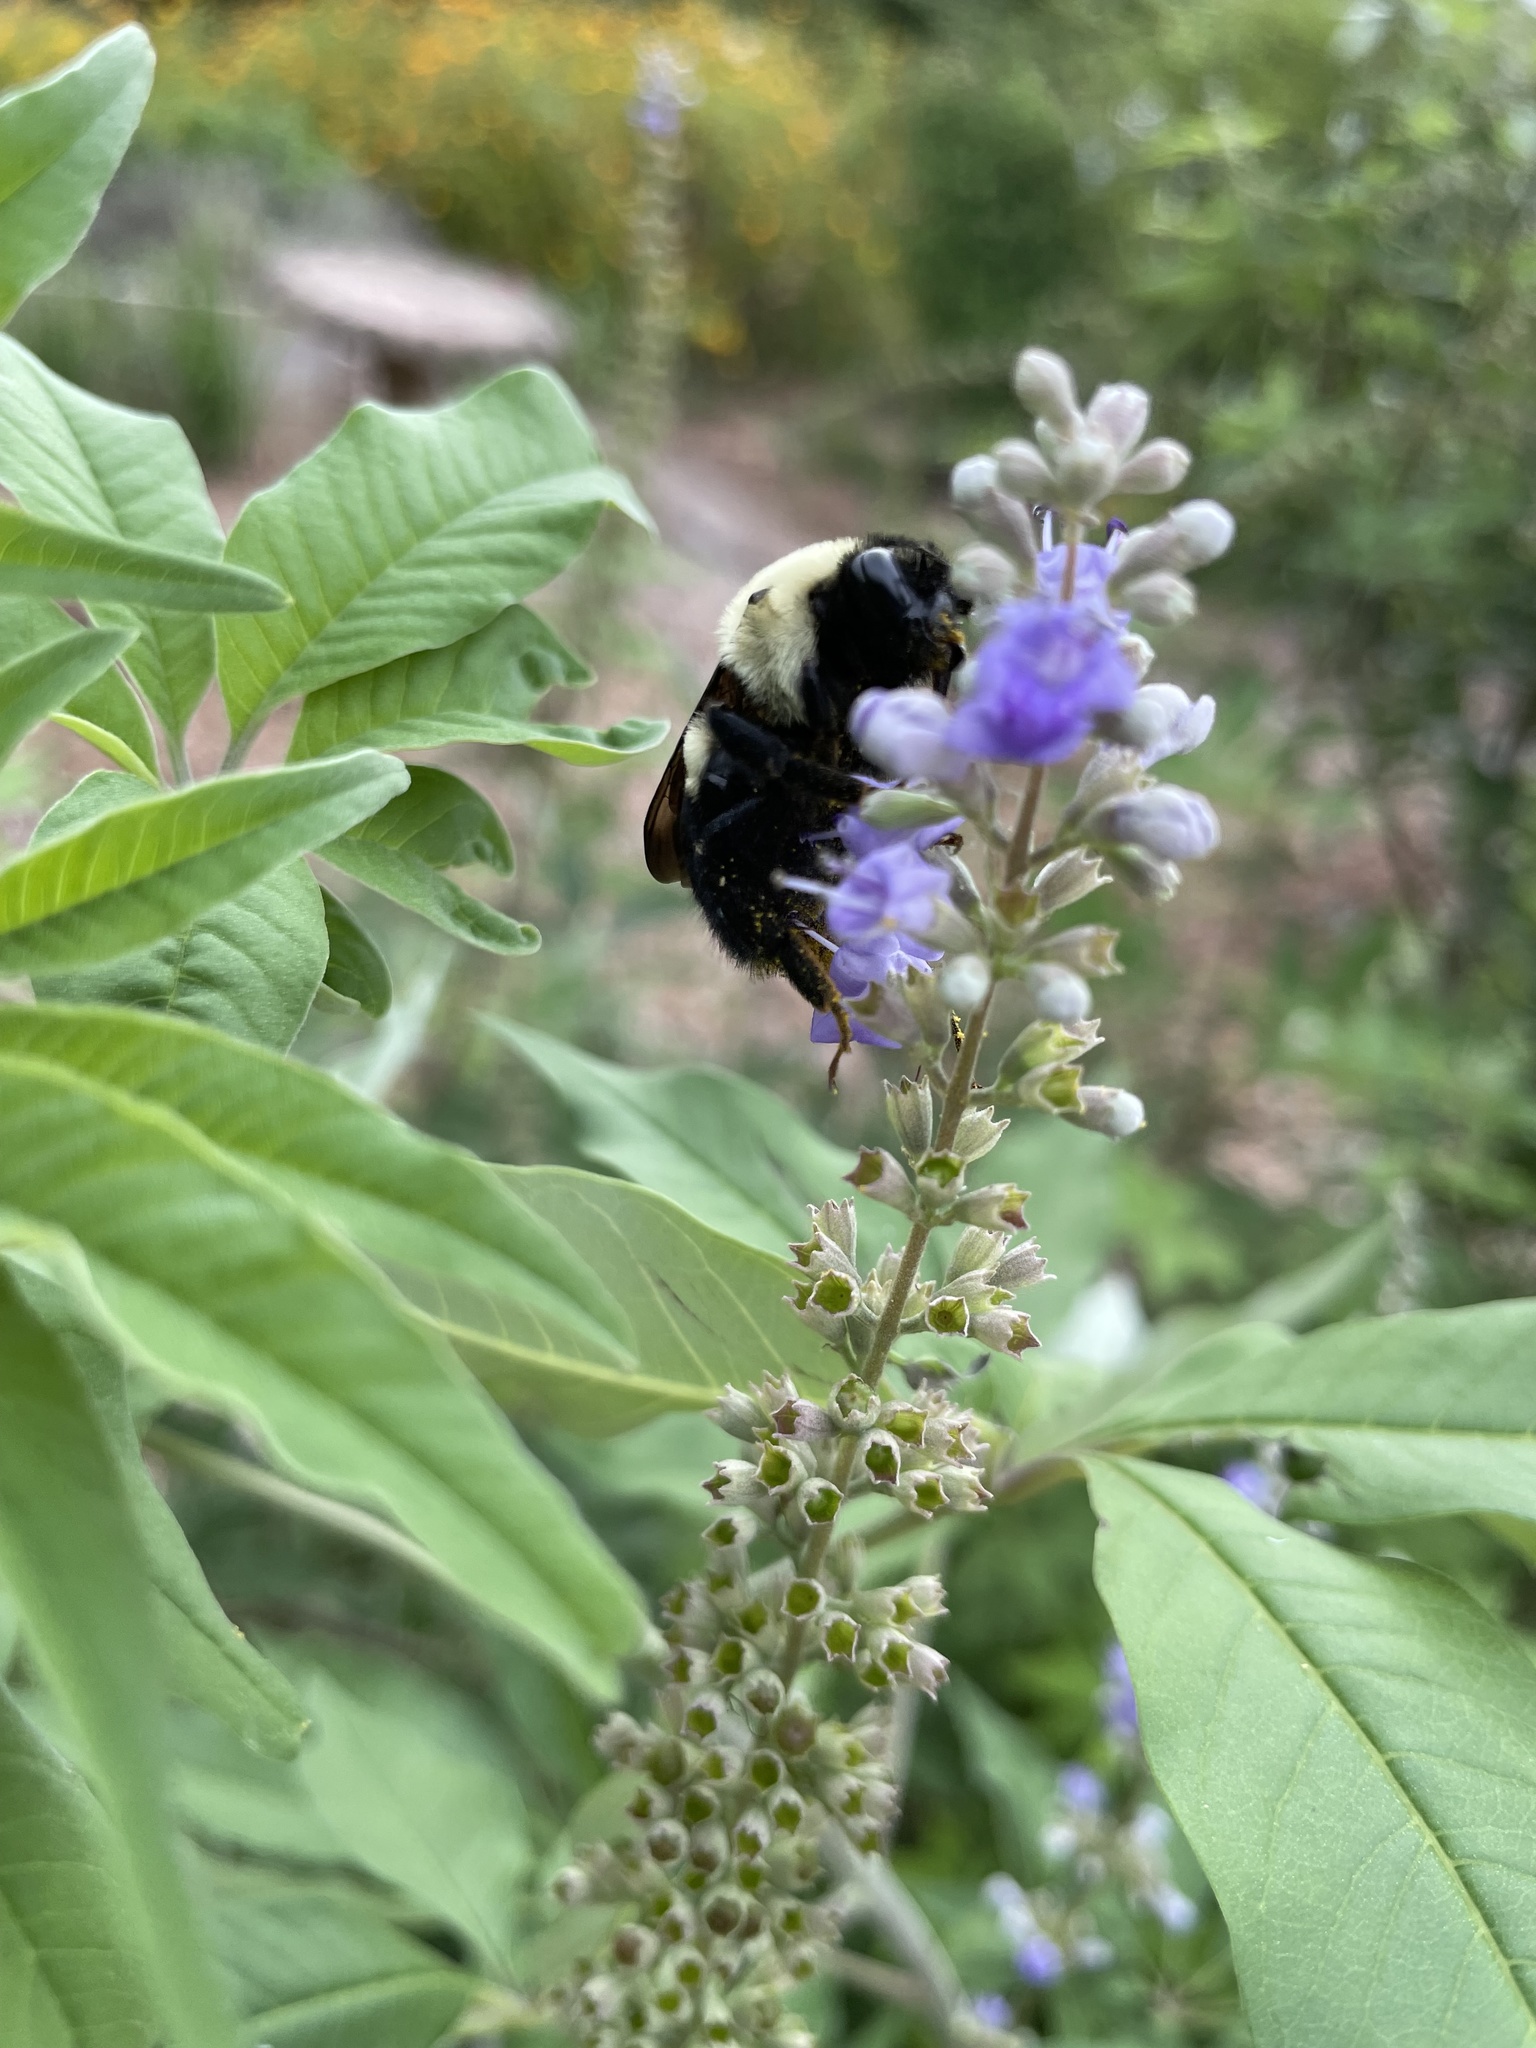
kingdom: Animalia
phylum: Arthropoda
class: Insecta
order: Hymenoptera
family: Apidae
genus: Bombus
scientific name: Bombus griseocollis
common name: Brown-belted bumble bee
